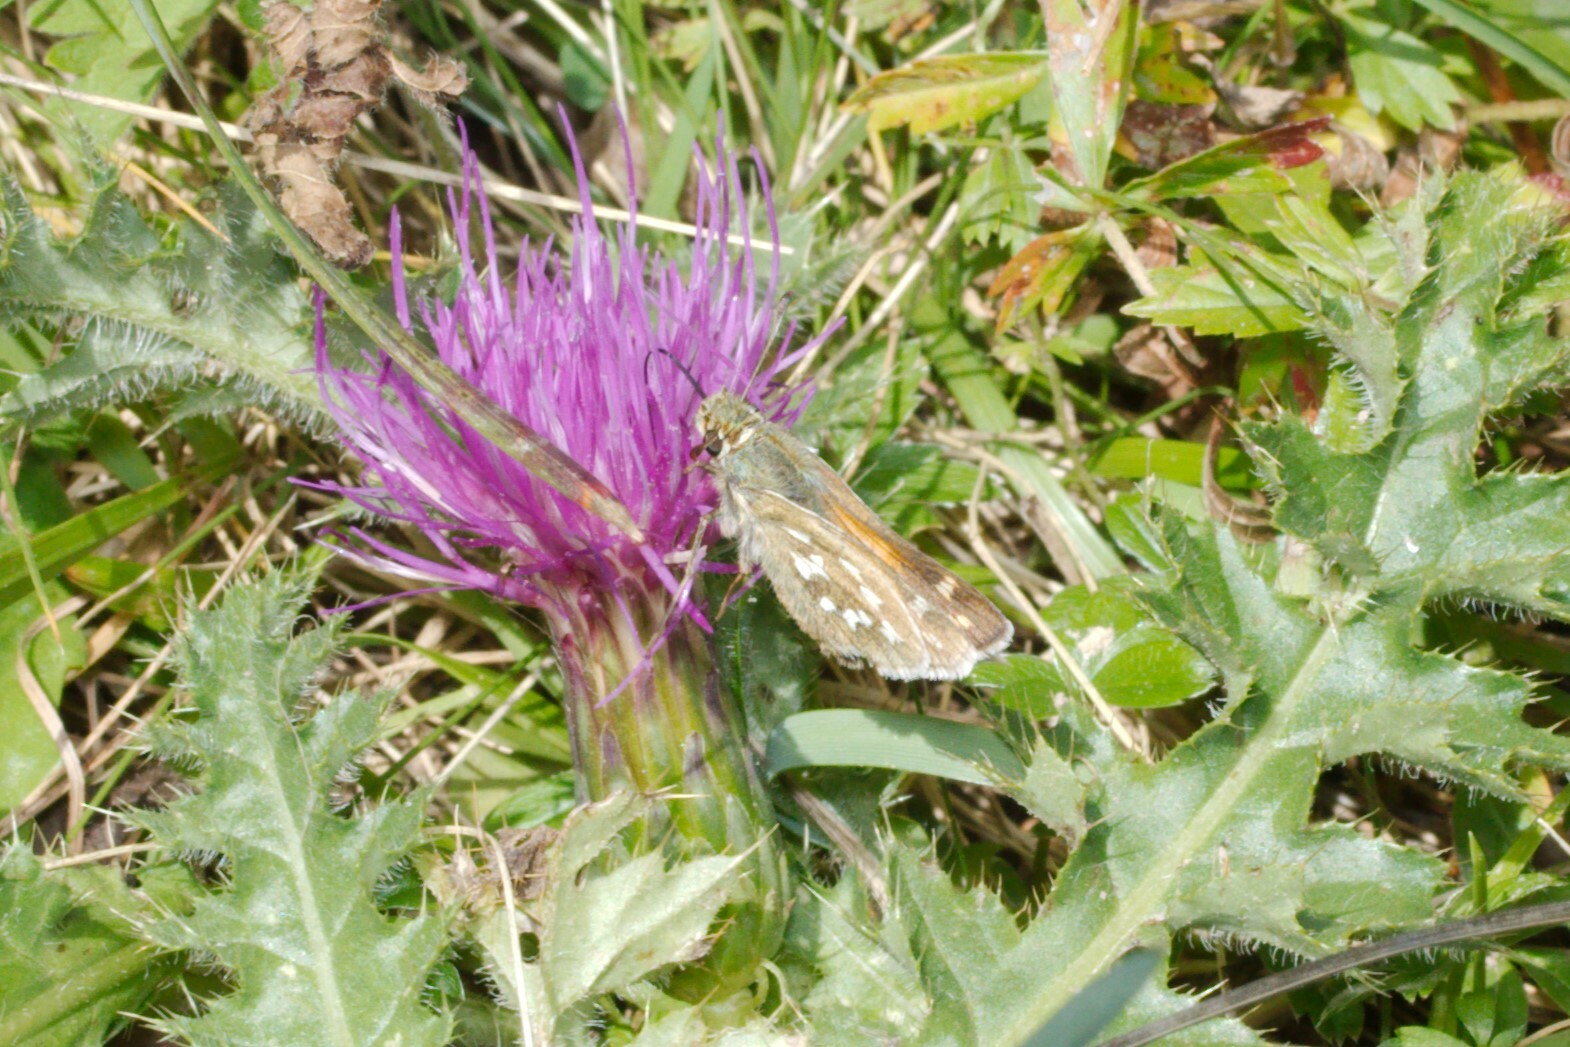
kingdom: Animalia
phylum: Arthropoda
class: Insecta
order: Lepidoptera
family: Hesperiidae
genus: Hesperia
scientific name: Hesperia comma
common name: Common branded skipper
